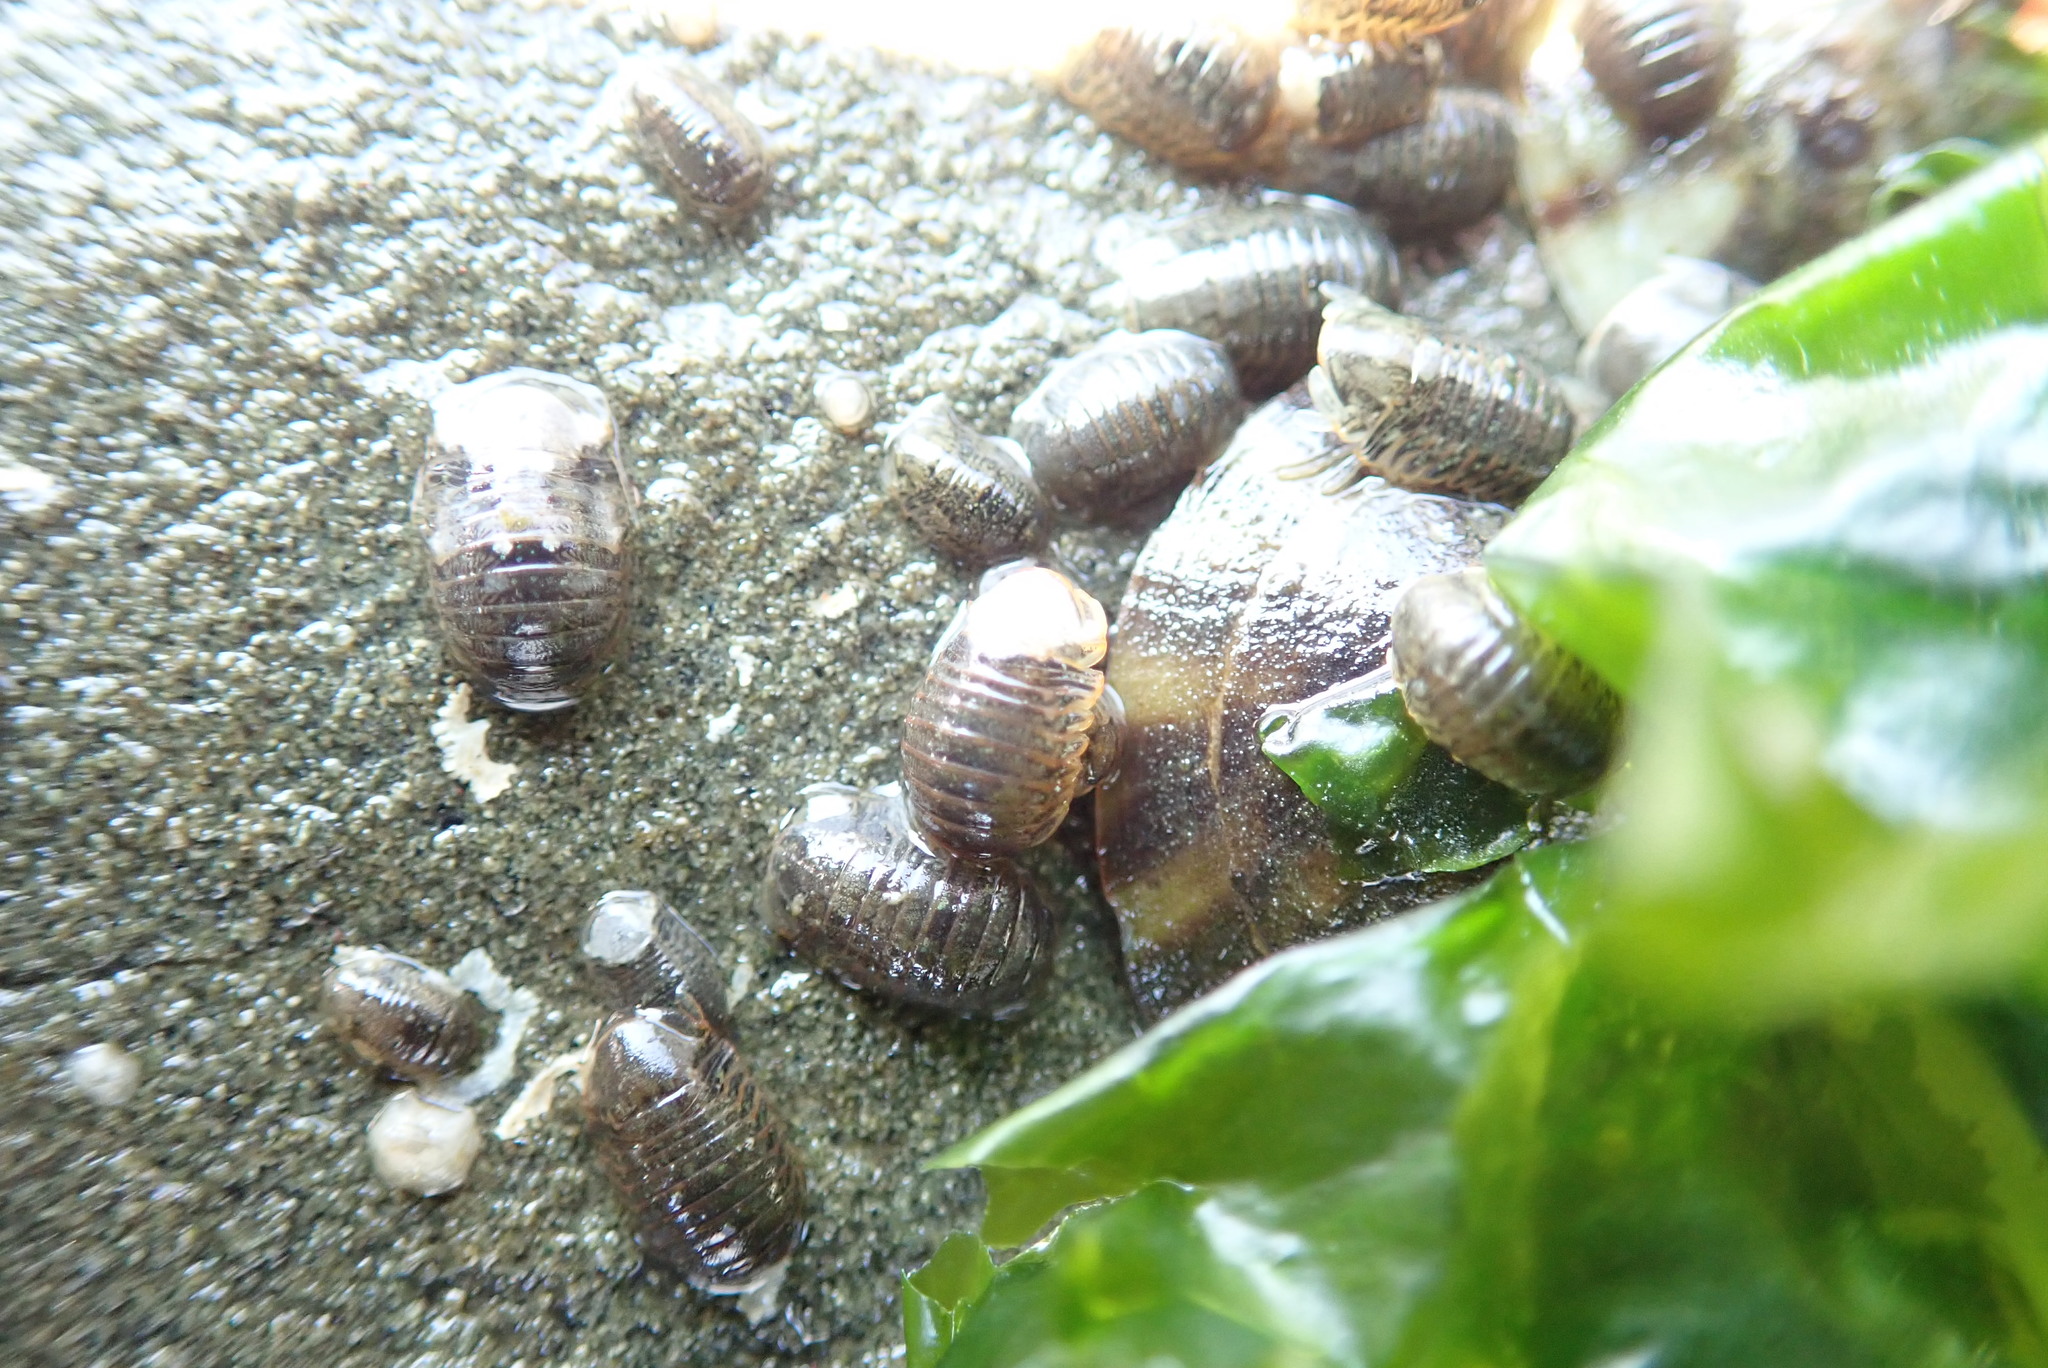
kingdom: Animalia
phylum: Arthropoda
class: Malacostraca
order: Isopoda
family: Sphaeromatidae
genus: Gnorimosphaeroma
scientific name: Gnorimosphaeroma oregonense
